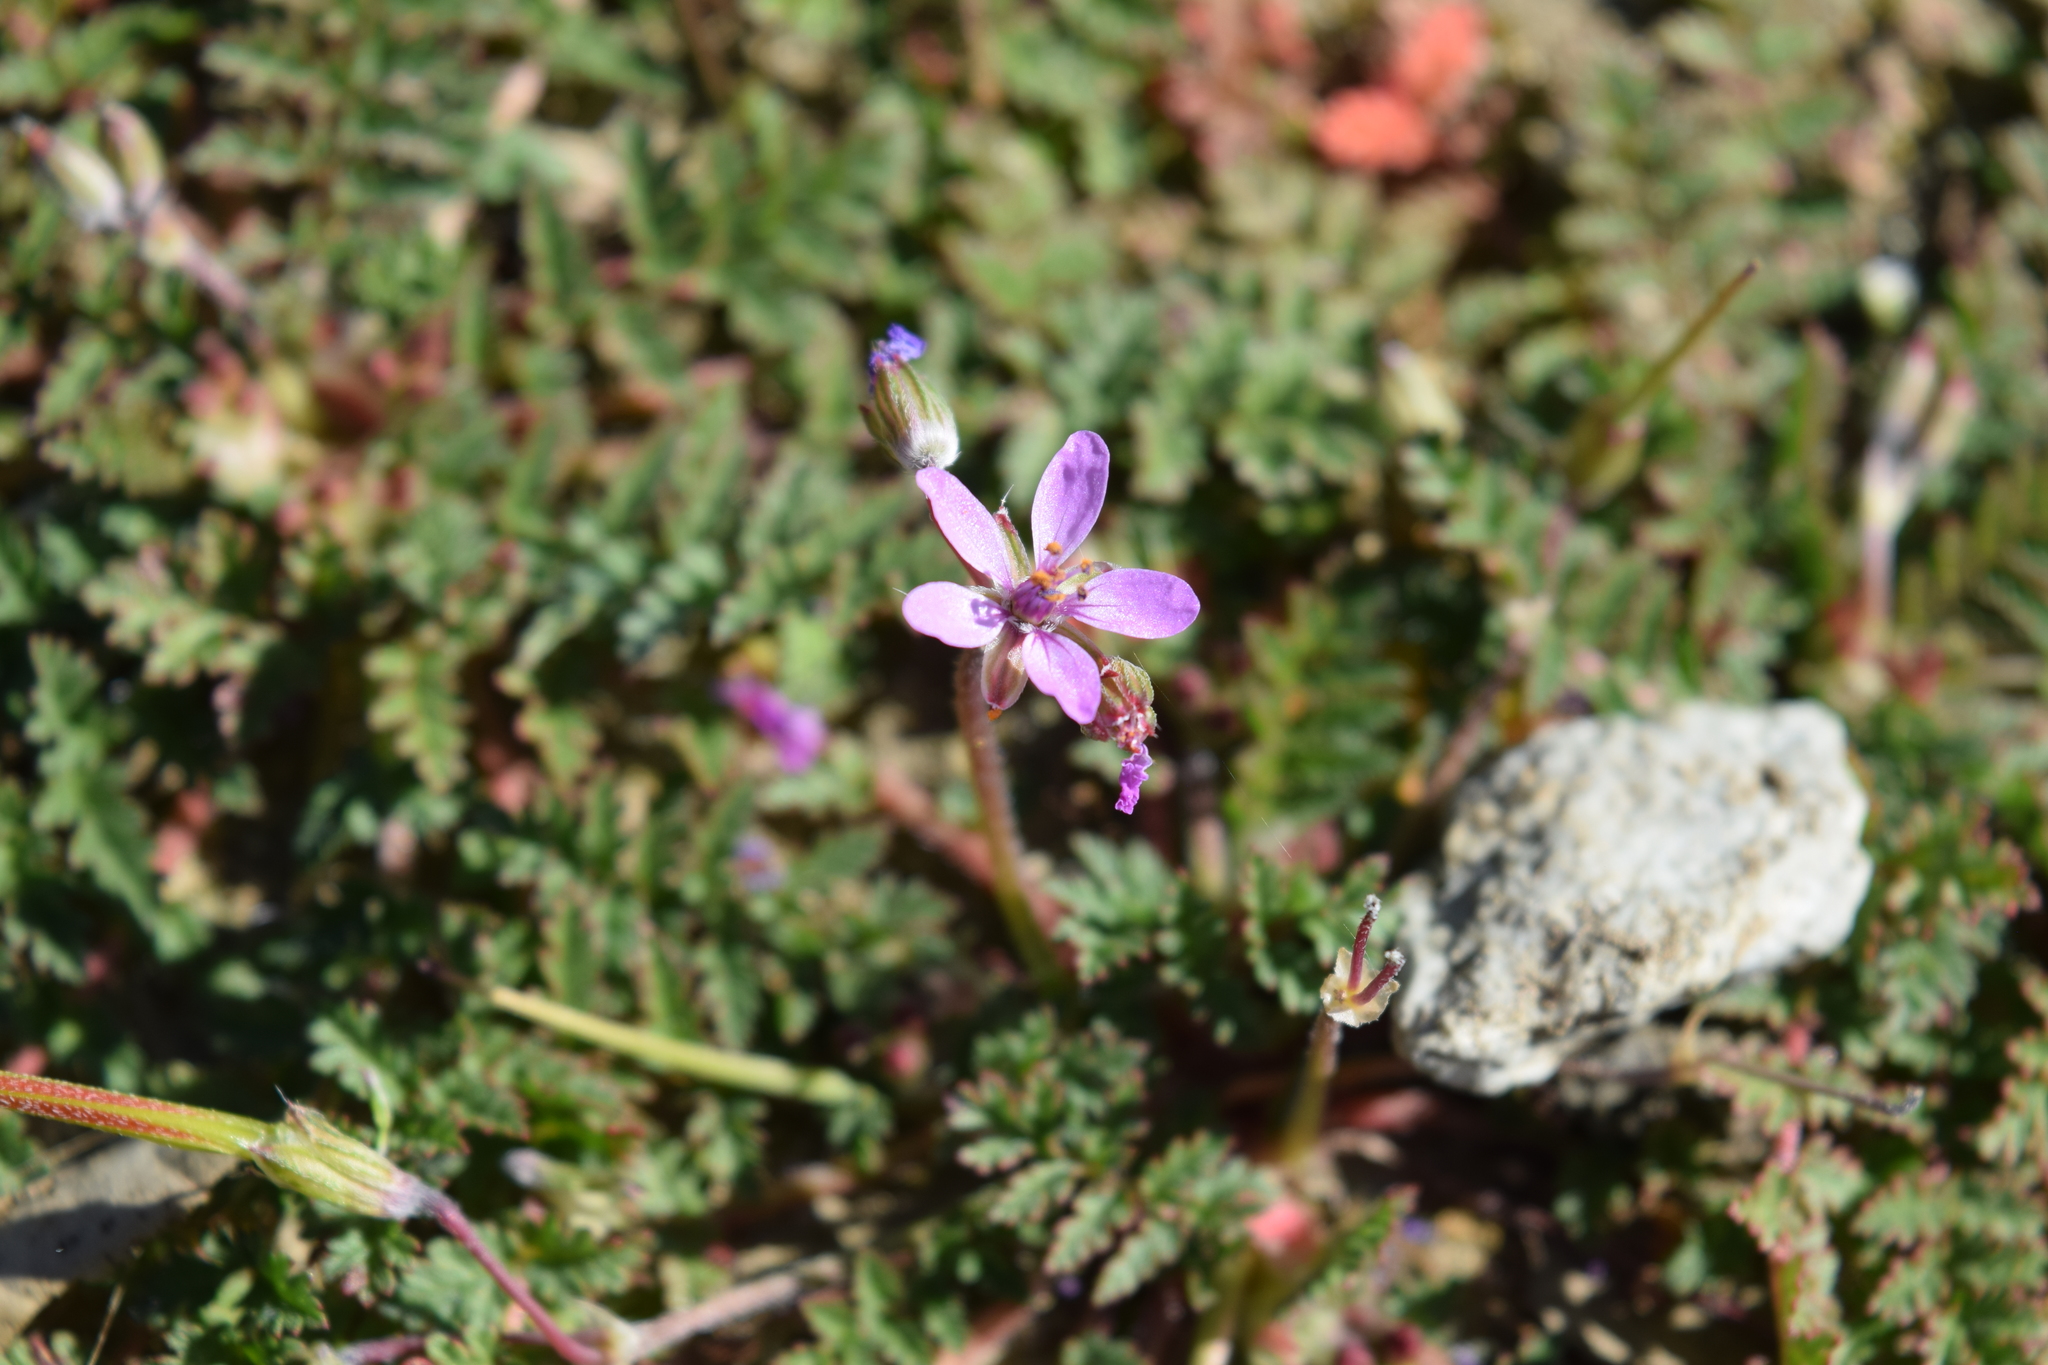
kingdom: Plantae
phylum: Tracheophyta
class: Magnoliopsida
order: Geraniales
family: Geraniaceae
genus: Erodium
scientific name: Erodium cicutarium
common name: Common stork's-bill
